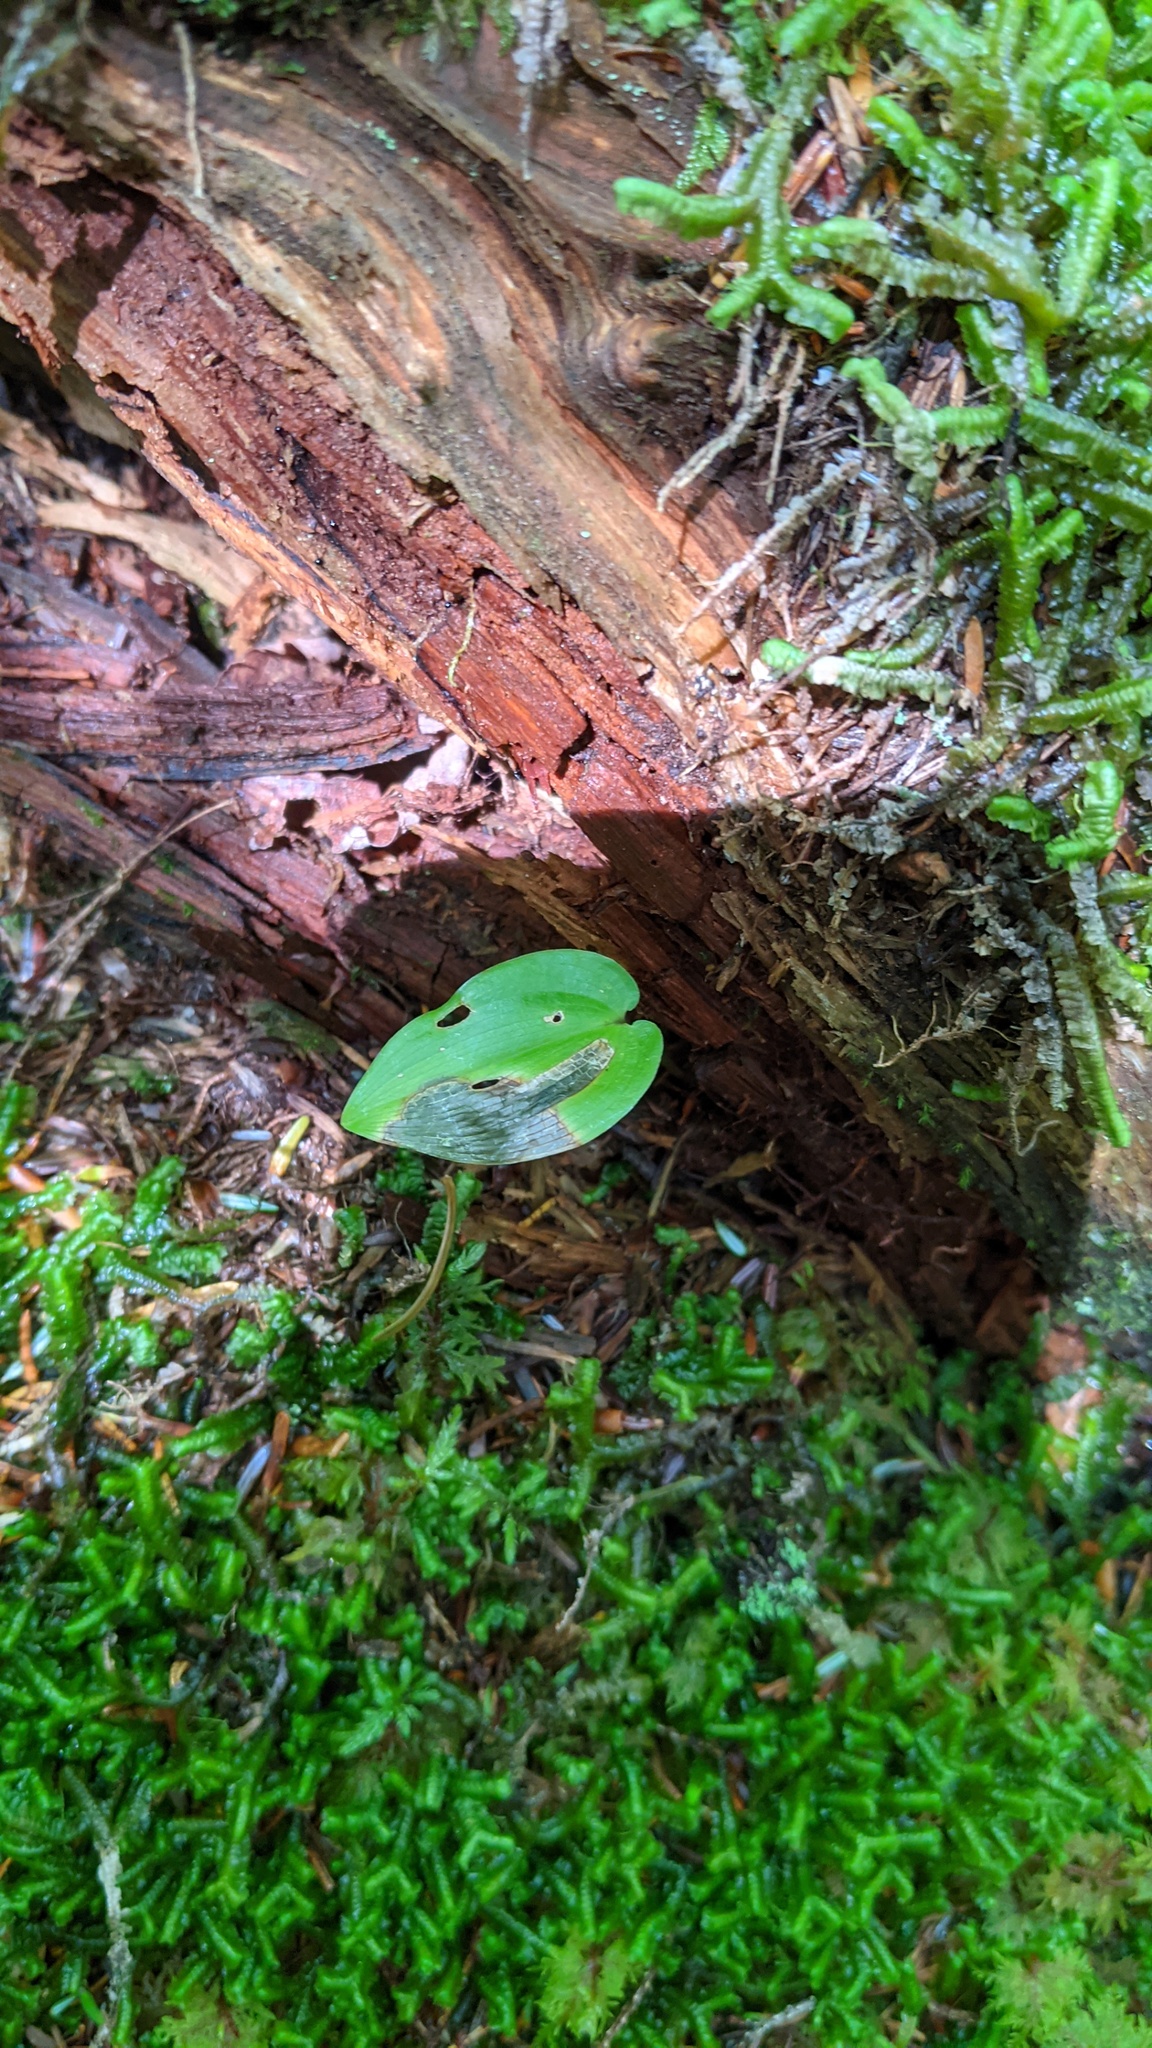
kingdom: Plantae
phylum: Tracheophyta
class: Liliopsida
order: Asparagales
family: Asparagaceae
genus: Maianthemum
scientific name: Maianthemum canadense
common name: False lily-of-the-valley
